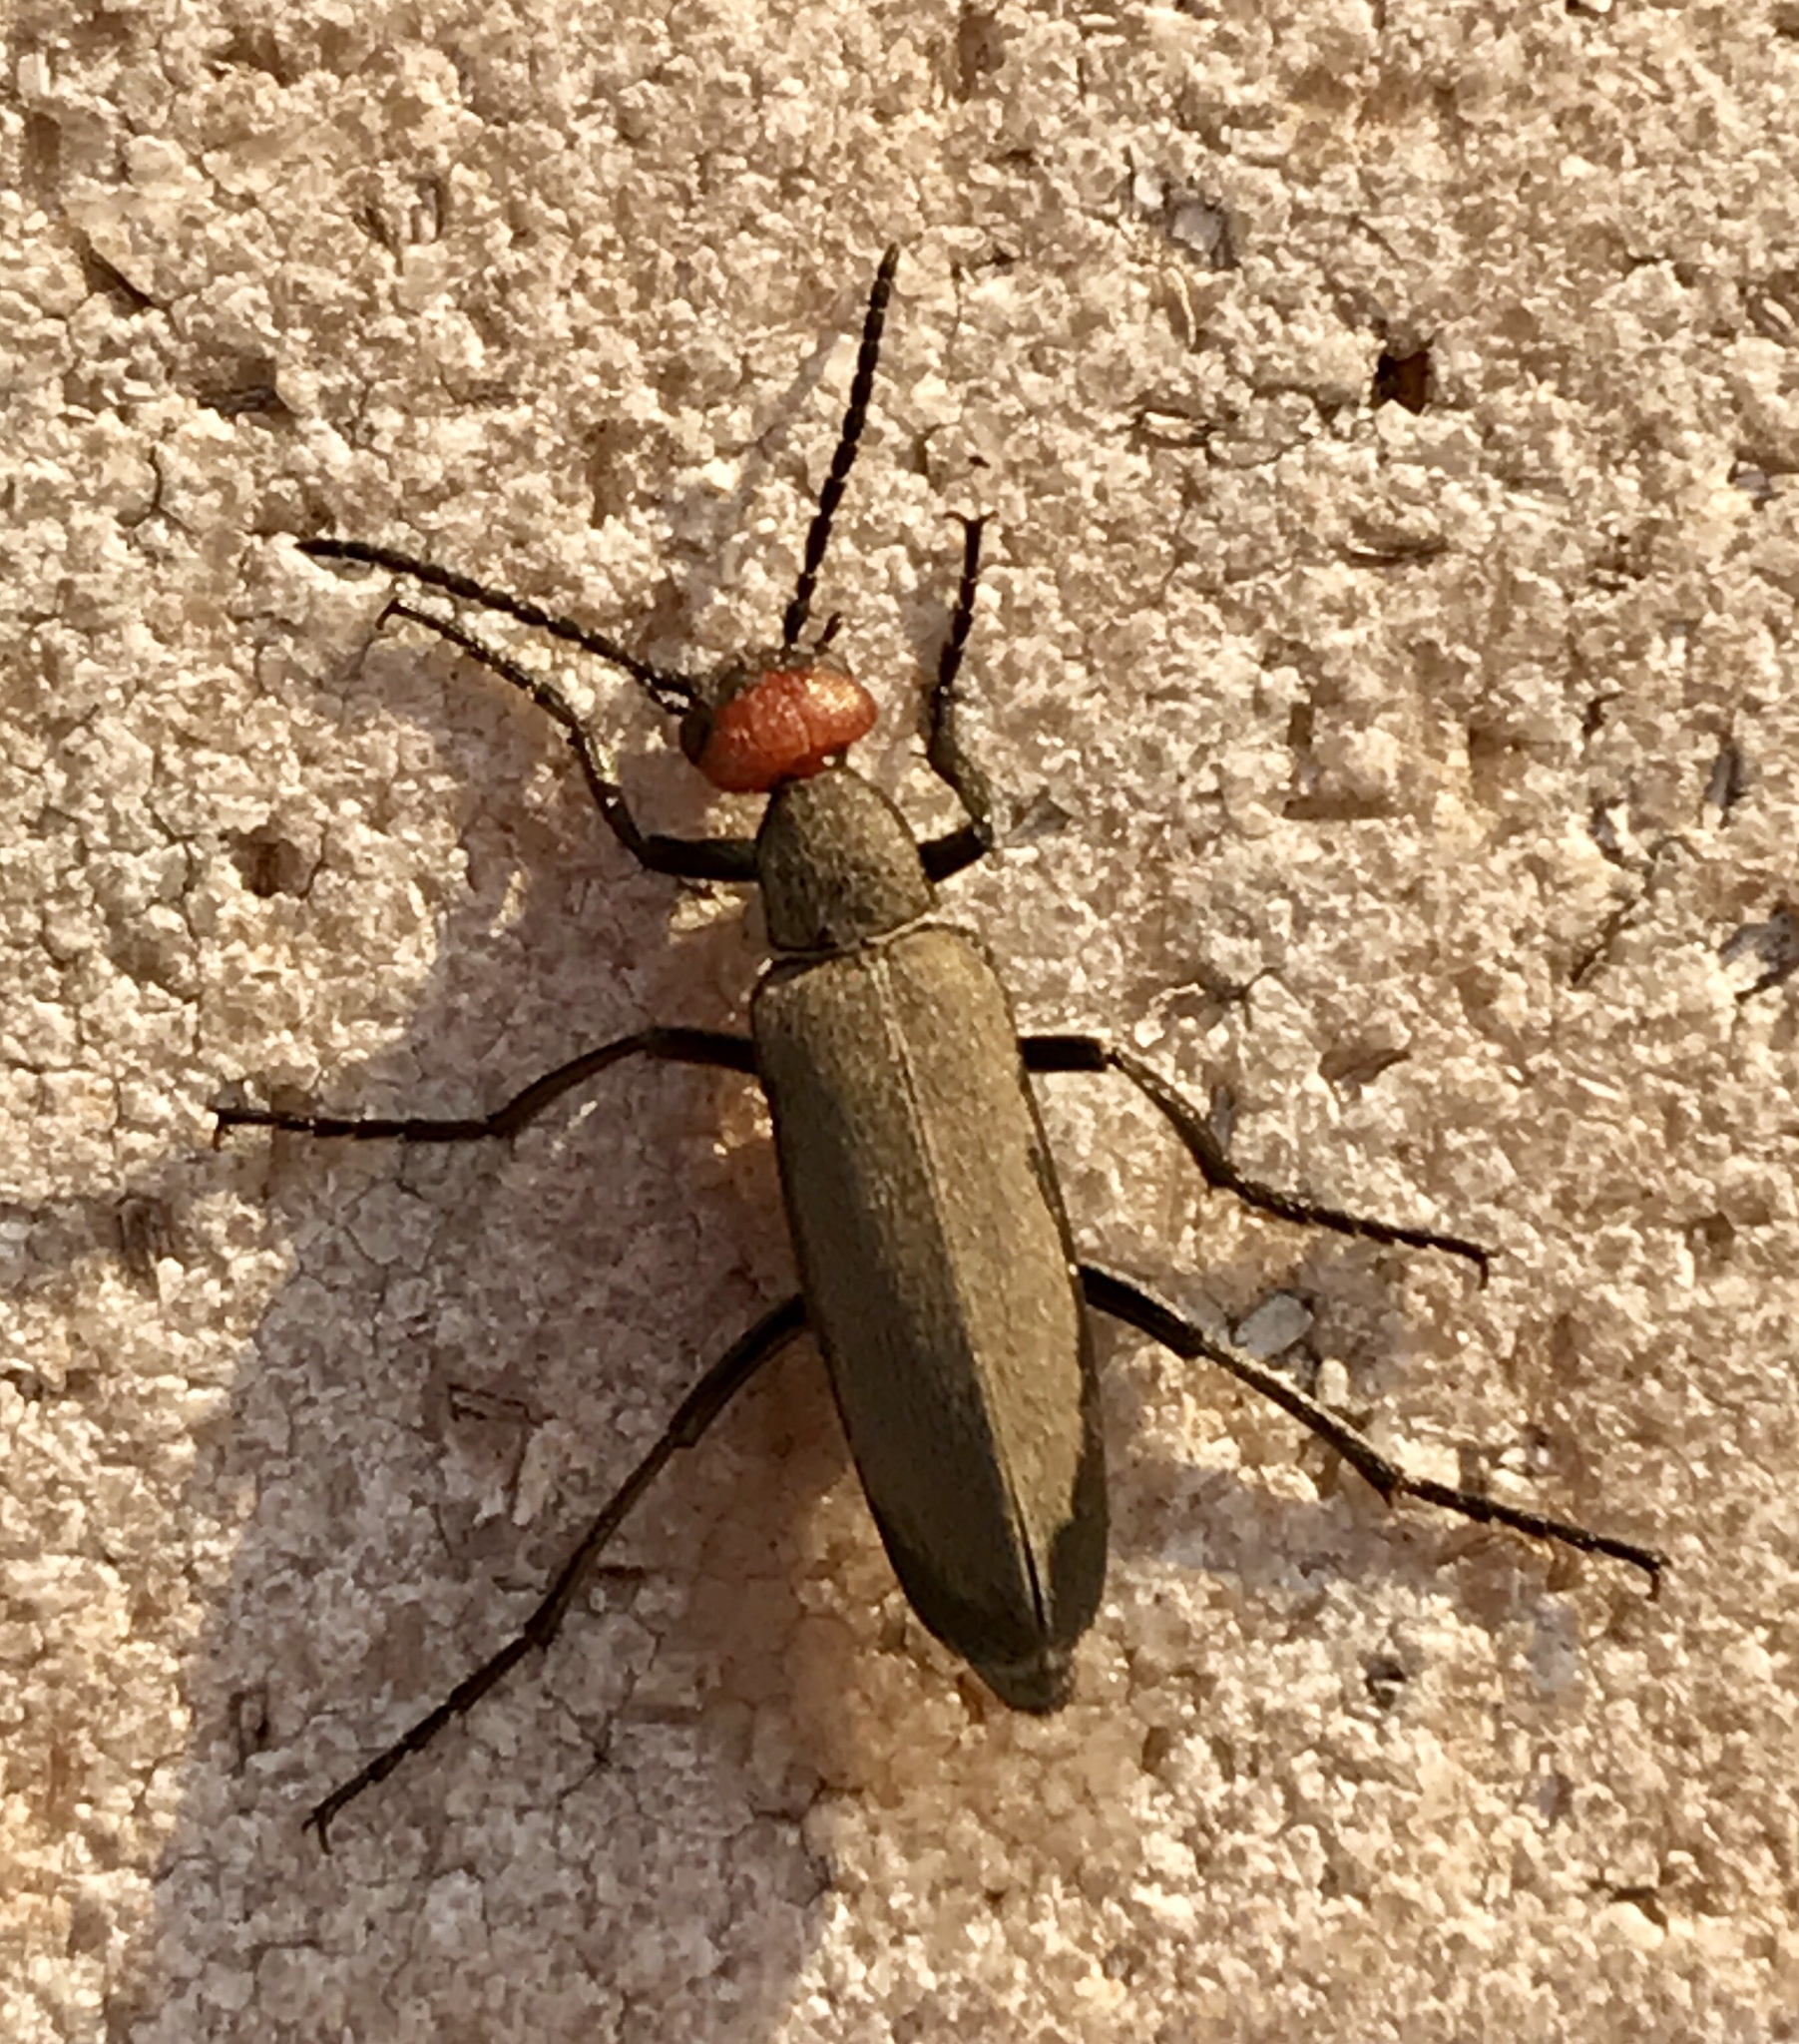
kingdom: Animalia
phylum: Arthropoda
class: Insecta
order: Coleoptera
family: Meloidae
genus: Epicauta
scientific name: Epicauta atrata
